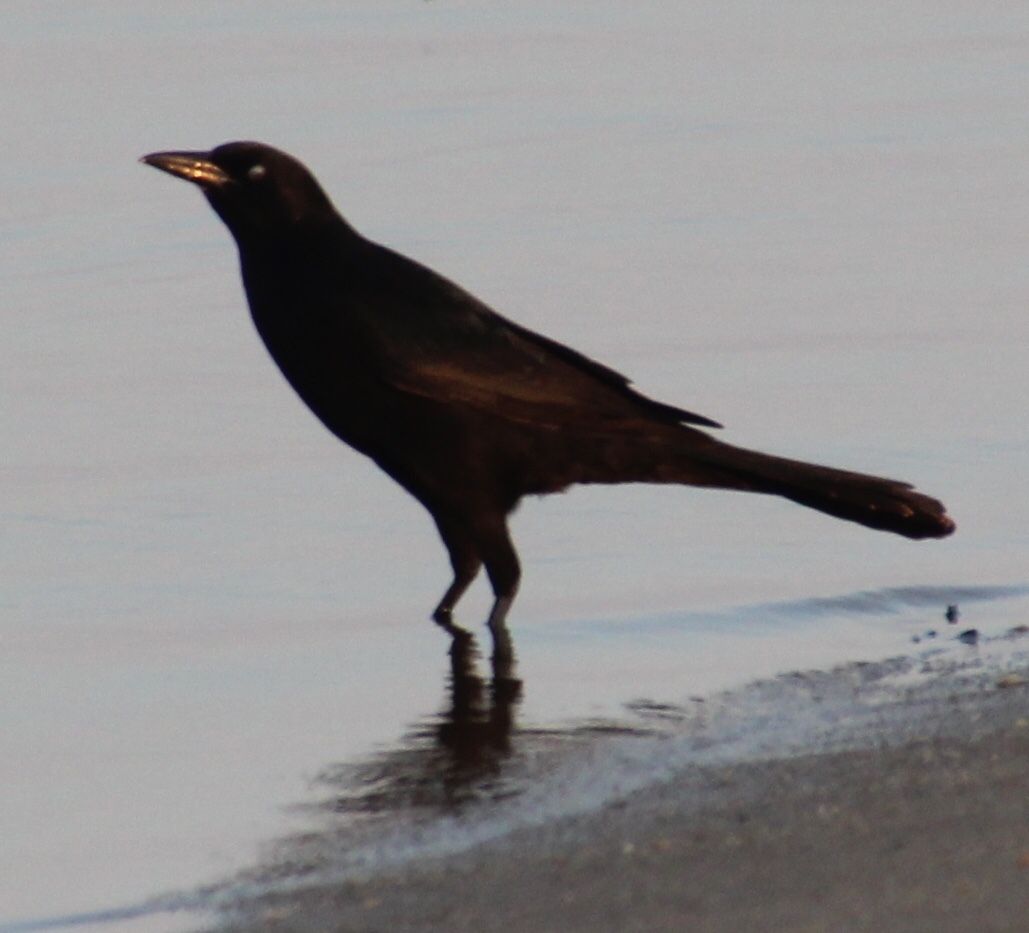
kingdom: Animalia
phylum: Chordata
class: Aves
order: Passeriformes
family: Icteridae
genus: Quiscalus
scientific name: Quiscalus major
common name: Boat-tailed grackle
